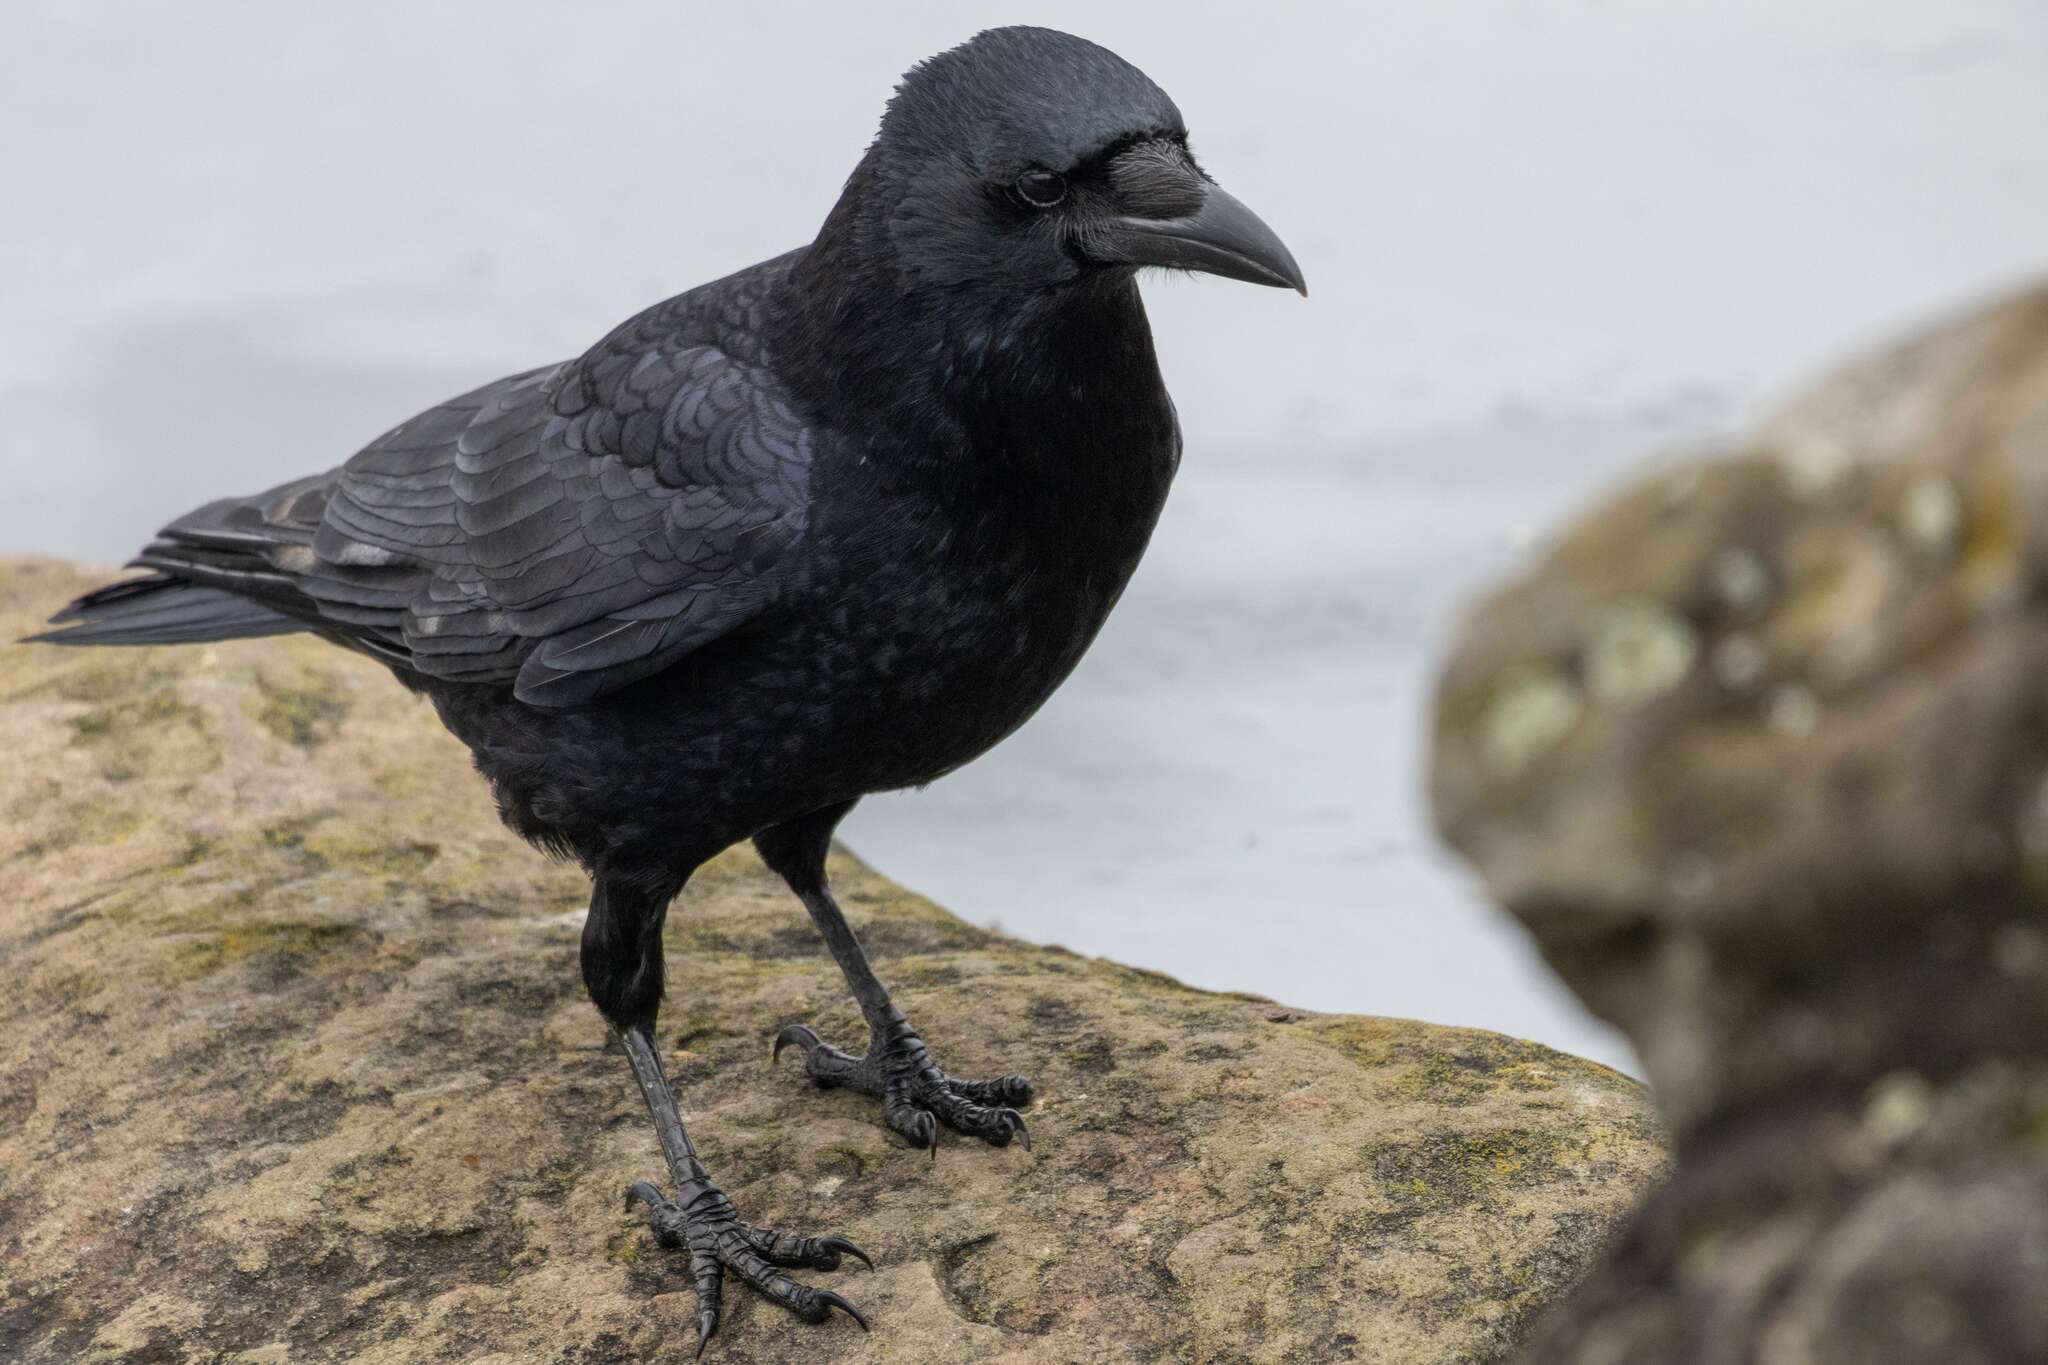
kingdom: Animalia
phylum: Chordata
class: Aves
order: Passeriformes
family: Corvidae
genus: Corvus
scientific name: Corvus corone
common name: Carrion crow
